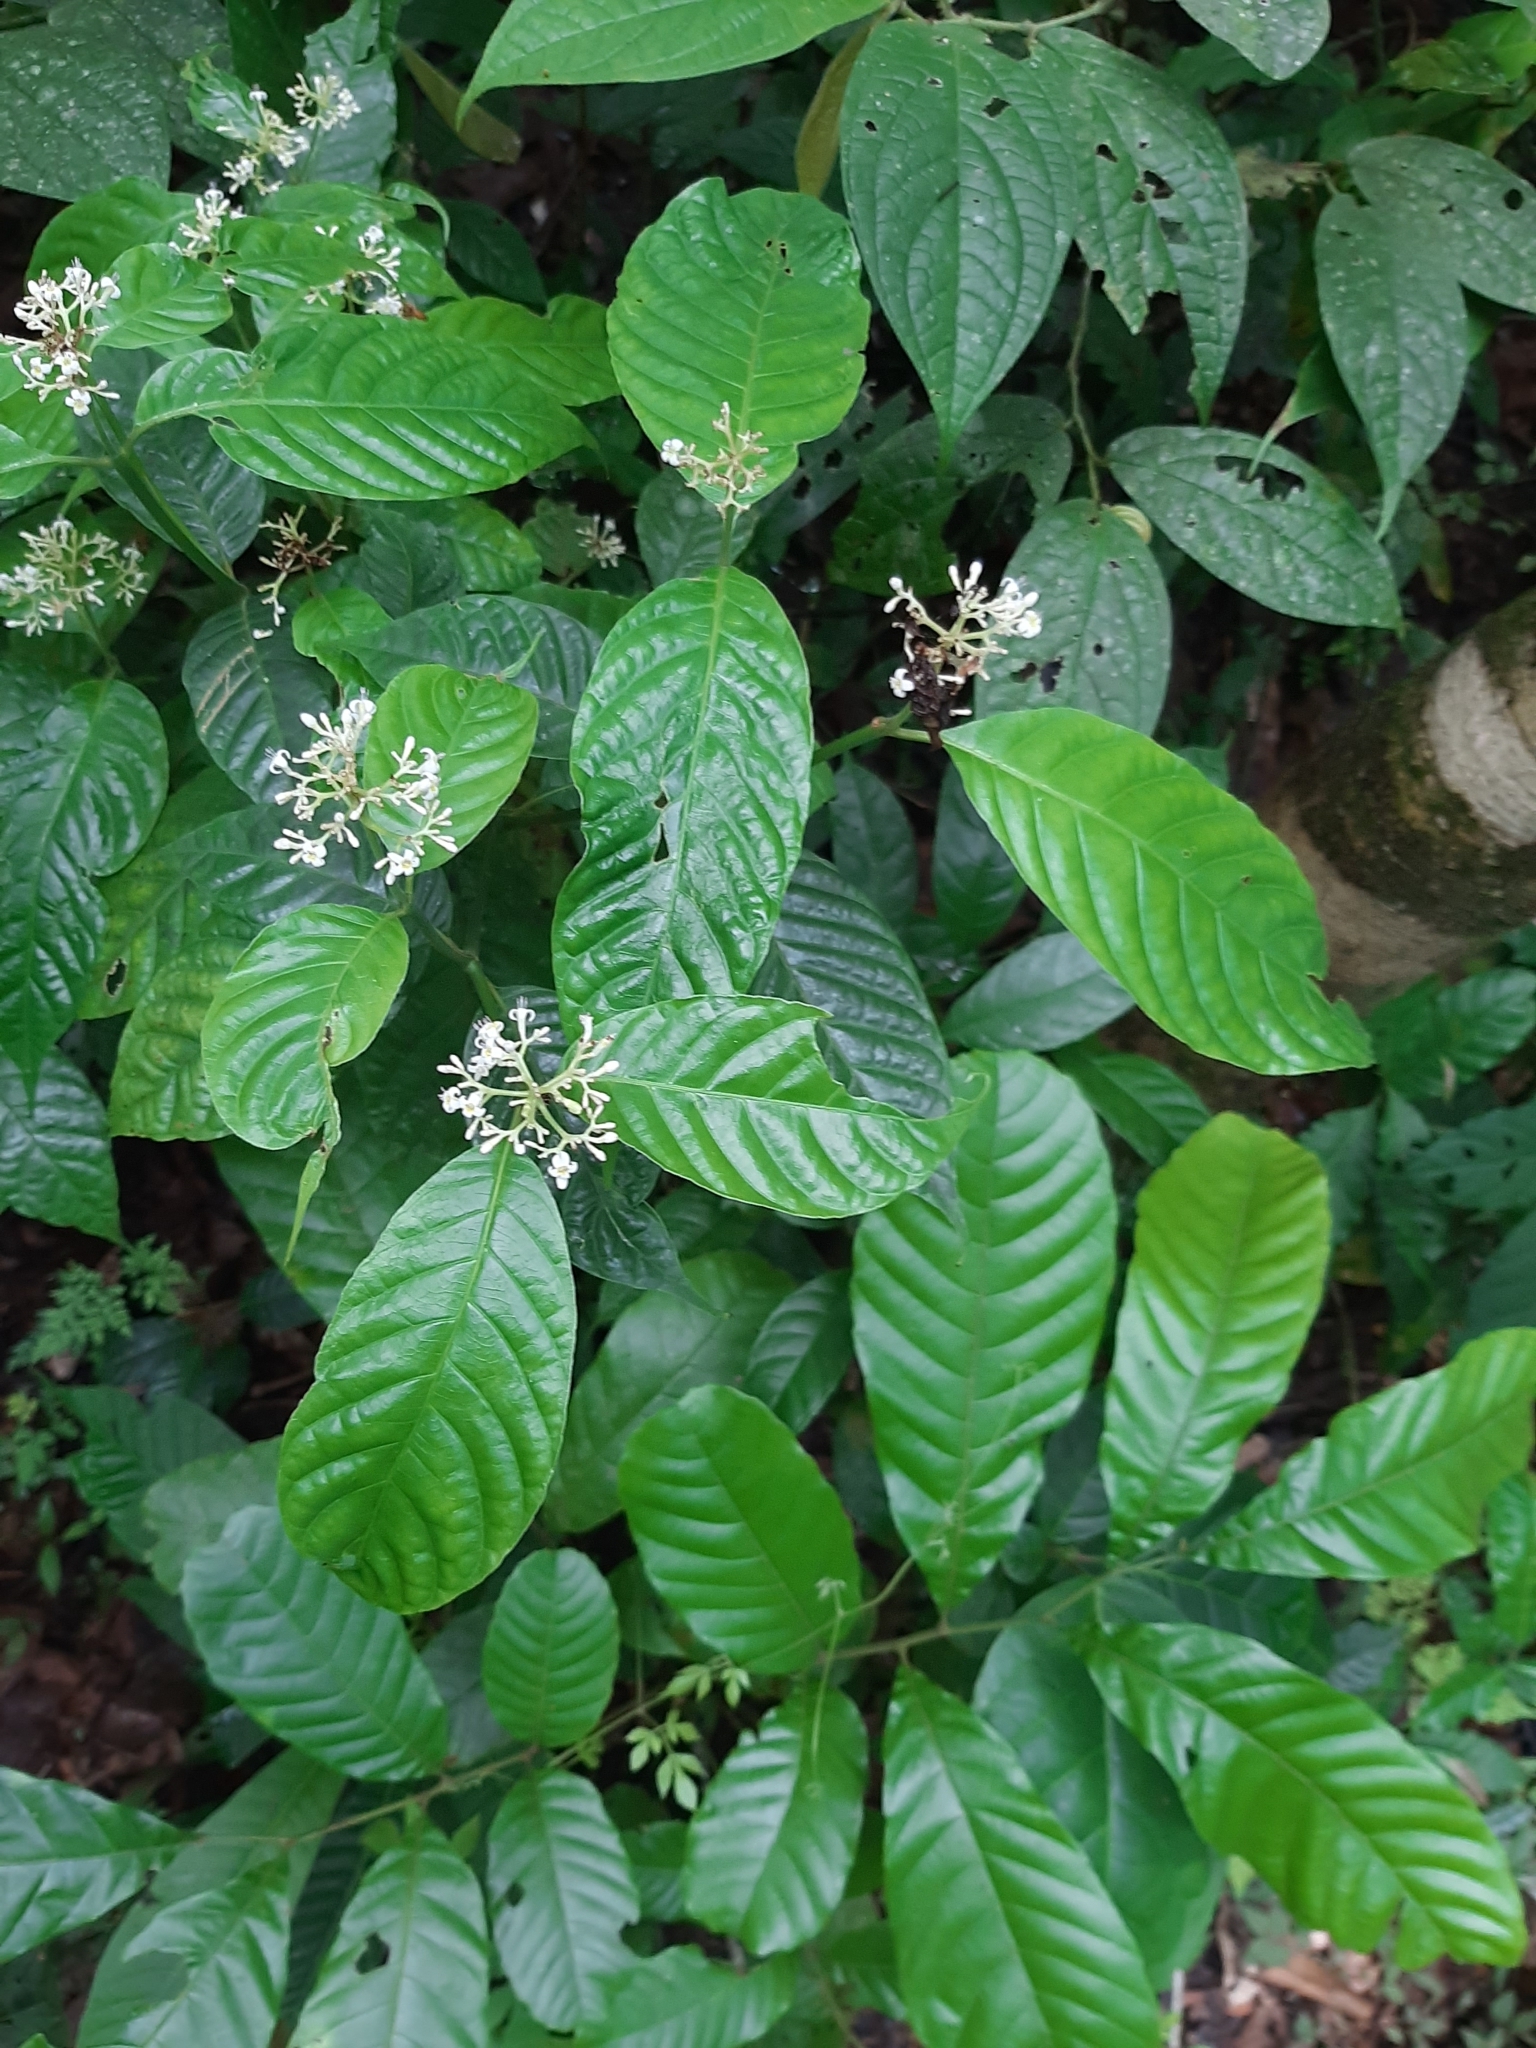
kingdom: Plantae
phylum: Tracheophyta
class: Magnoliopsida
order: Gentianales
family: Rubiaceae
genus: Palicourea
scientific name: Palicourea acuminata
